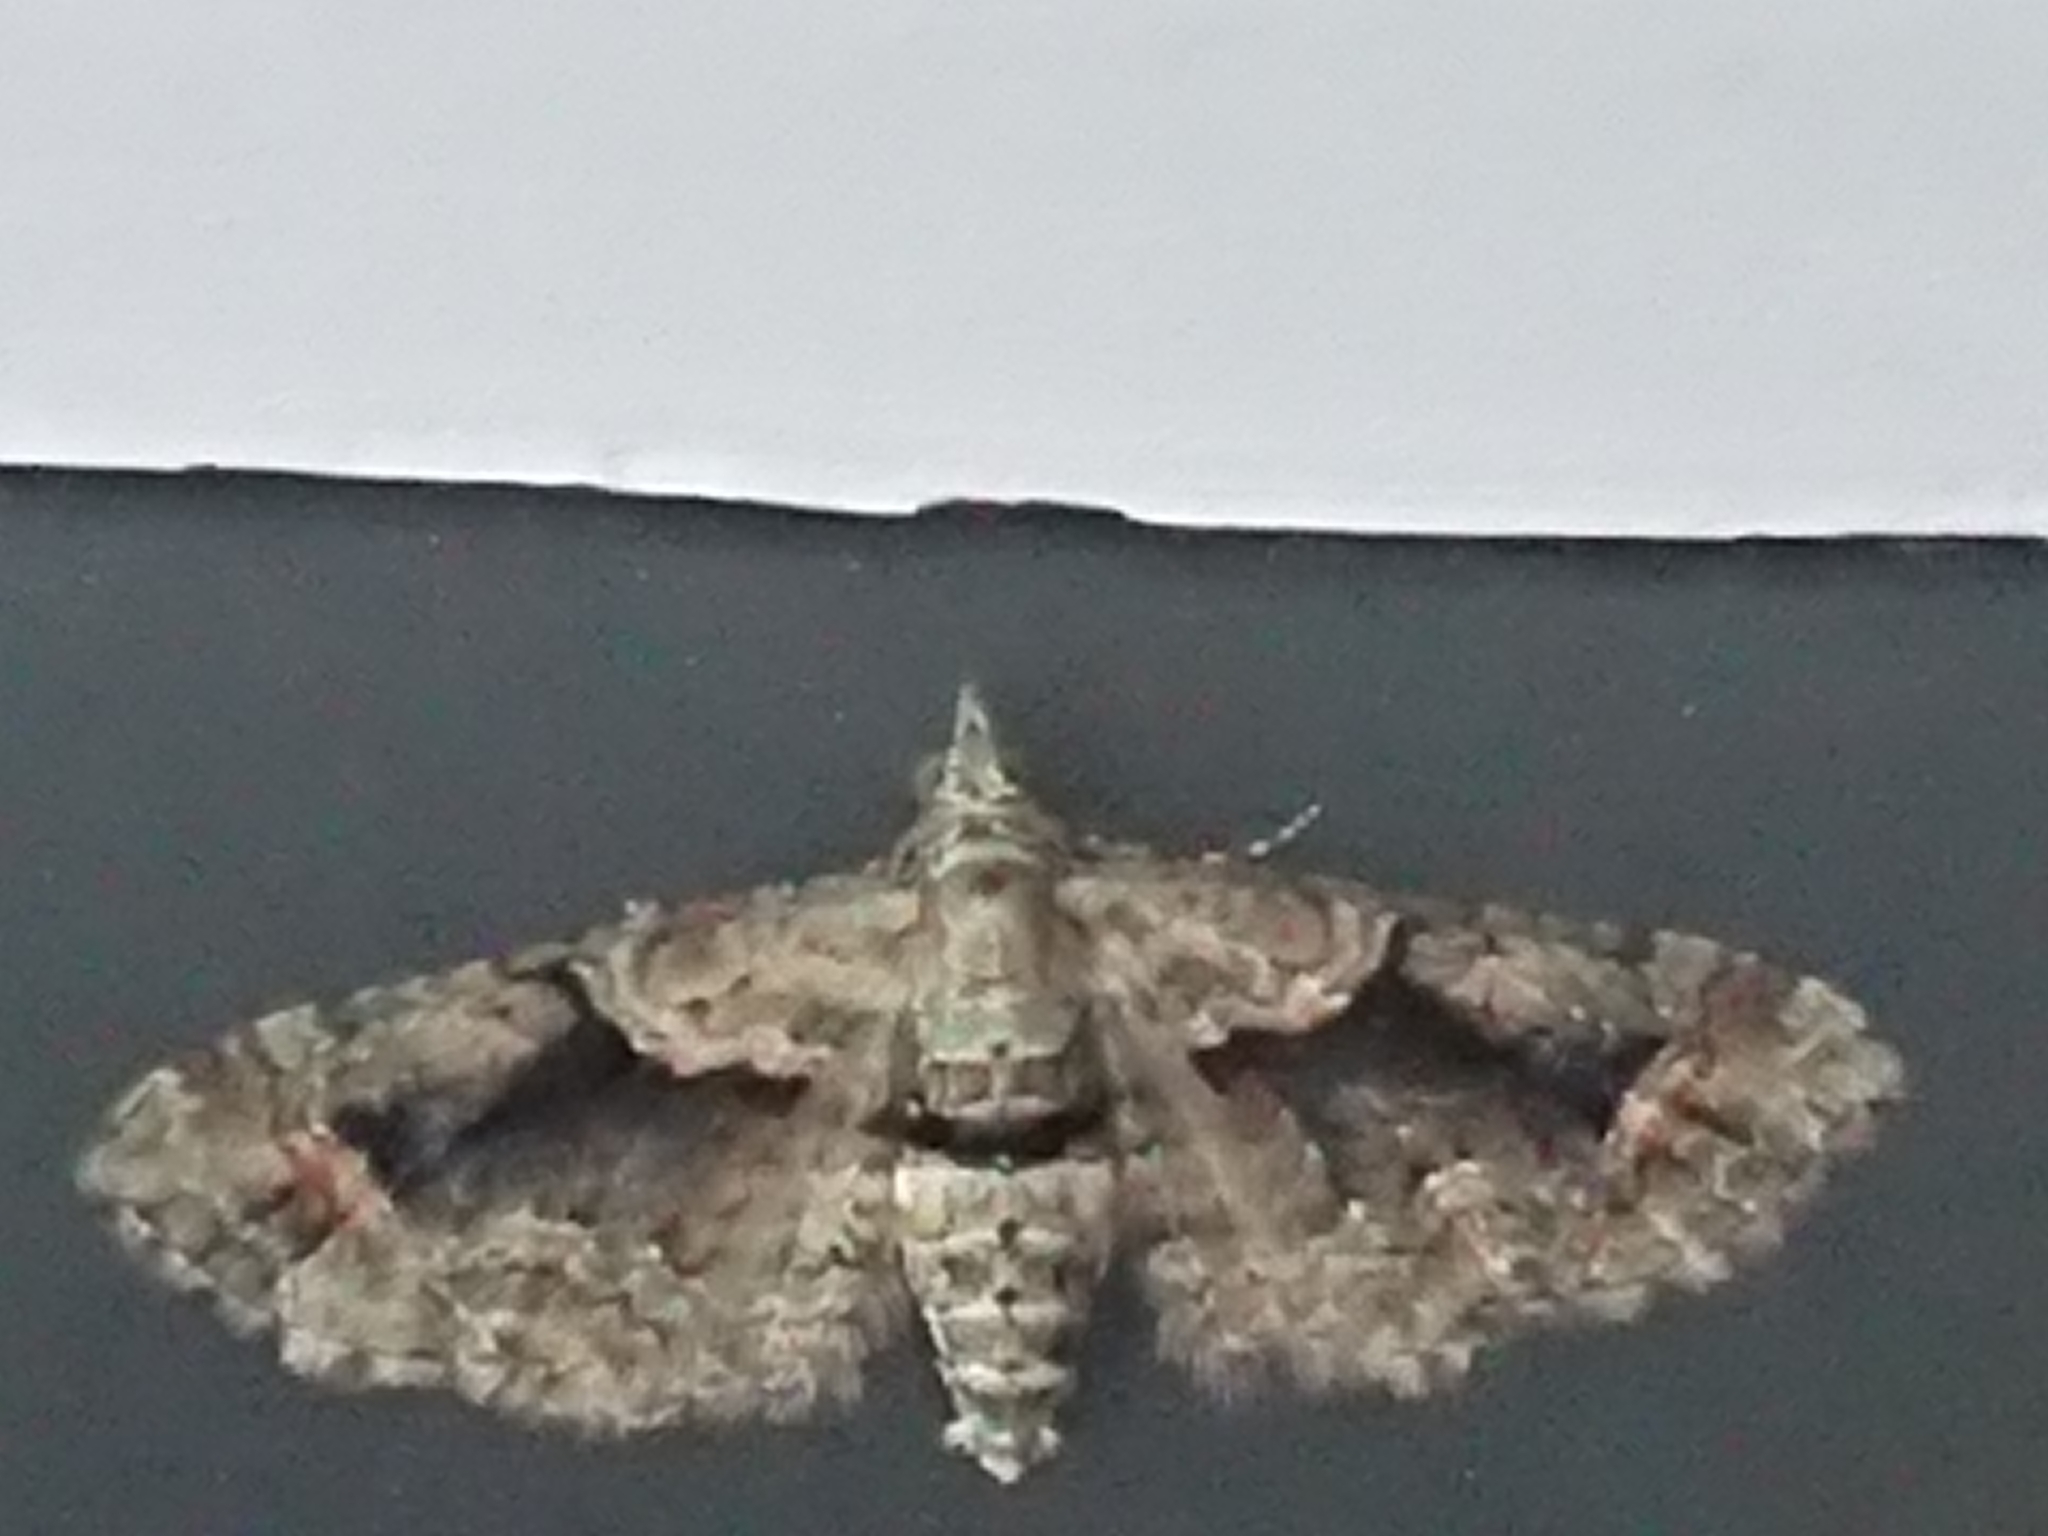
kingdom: Animalia
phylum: Arthropoda
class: Insecta
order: Lepidoptera
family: Geometridae
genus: Idaea
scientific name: Idaea mutanda
